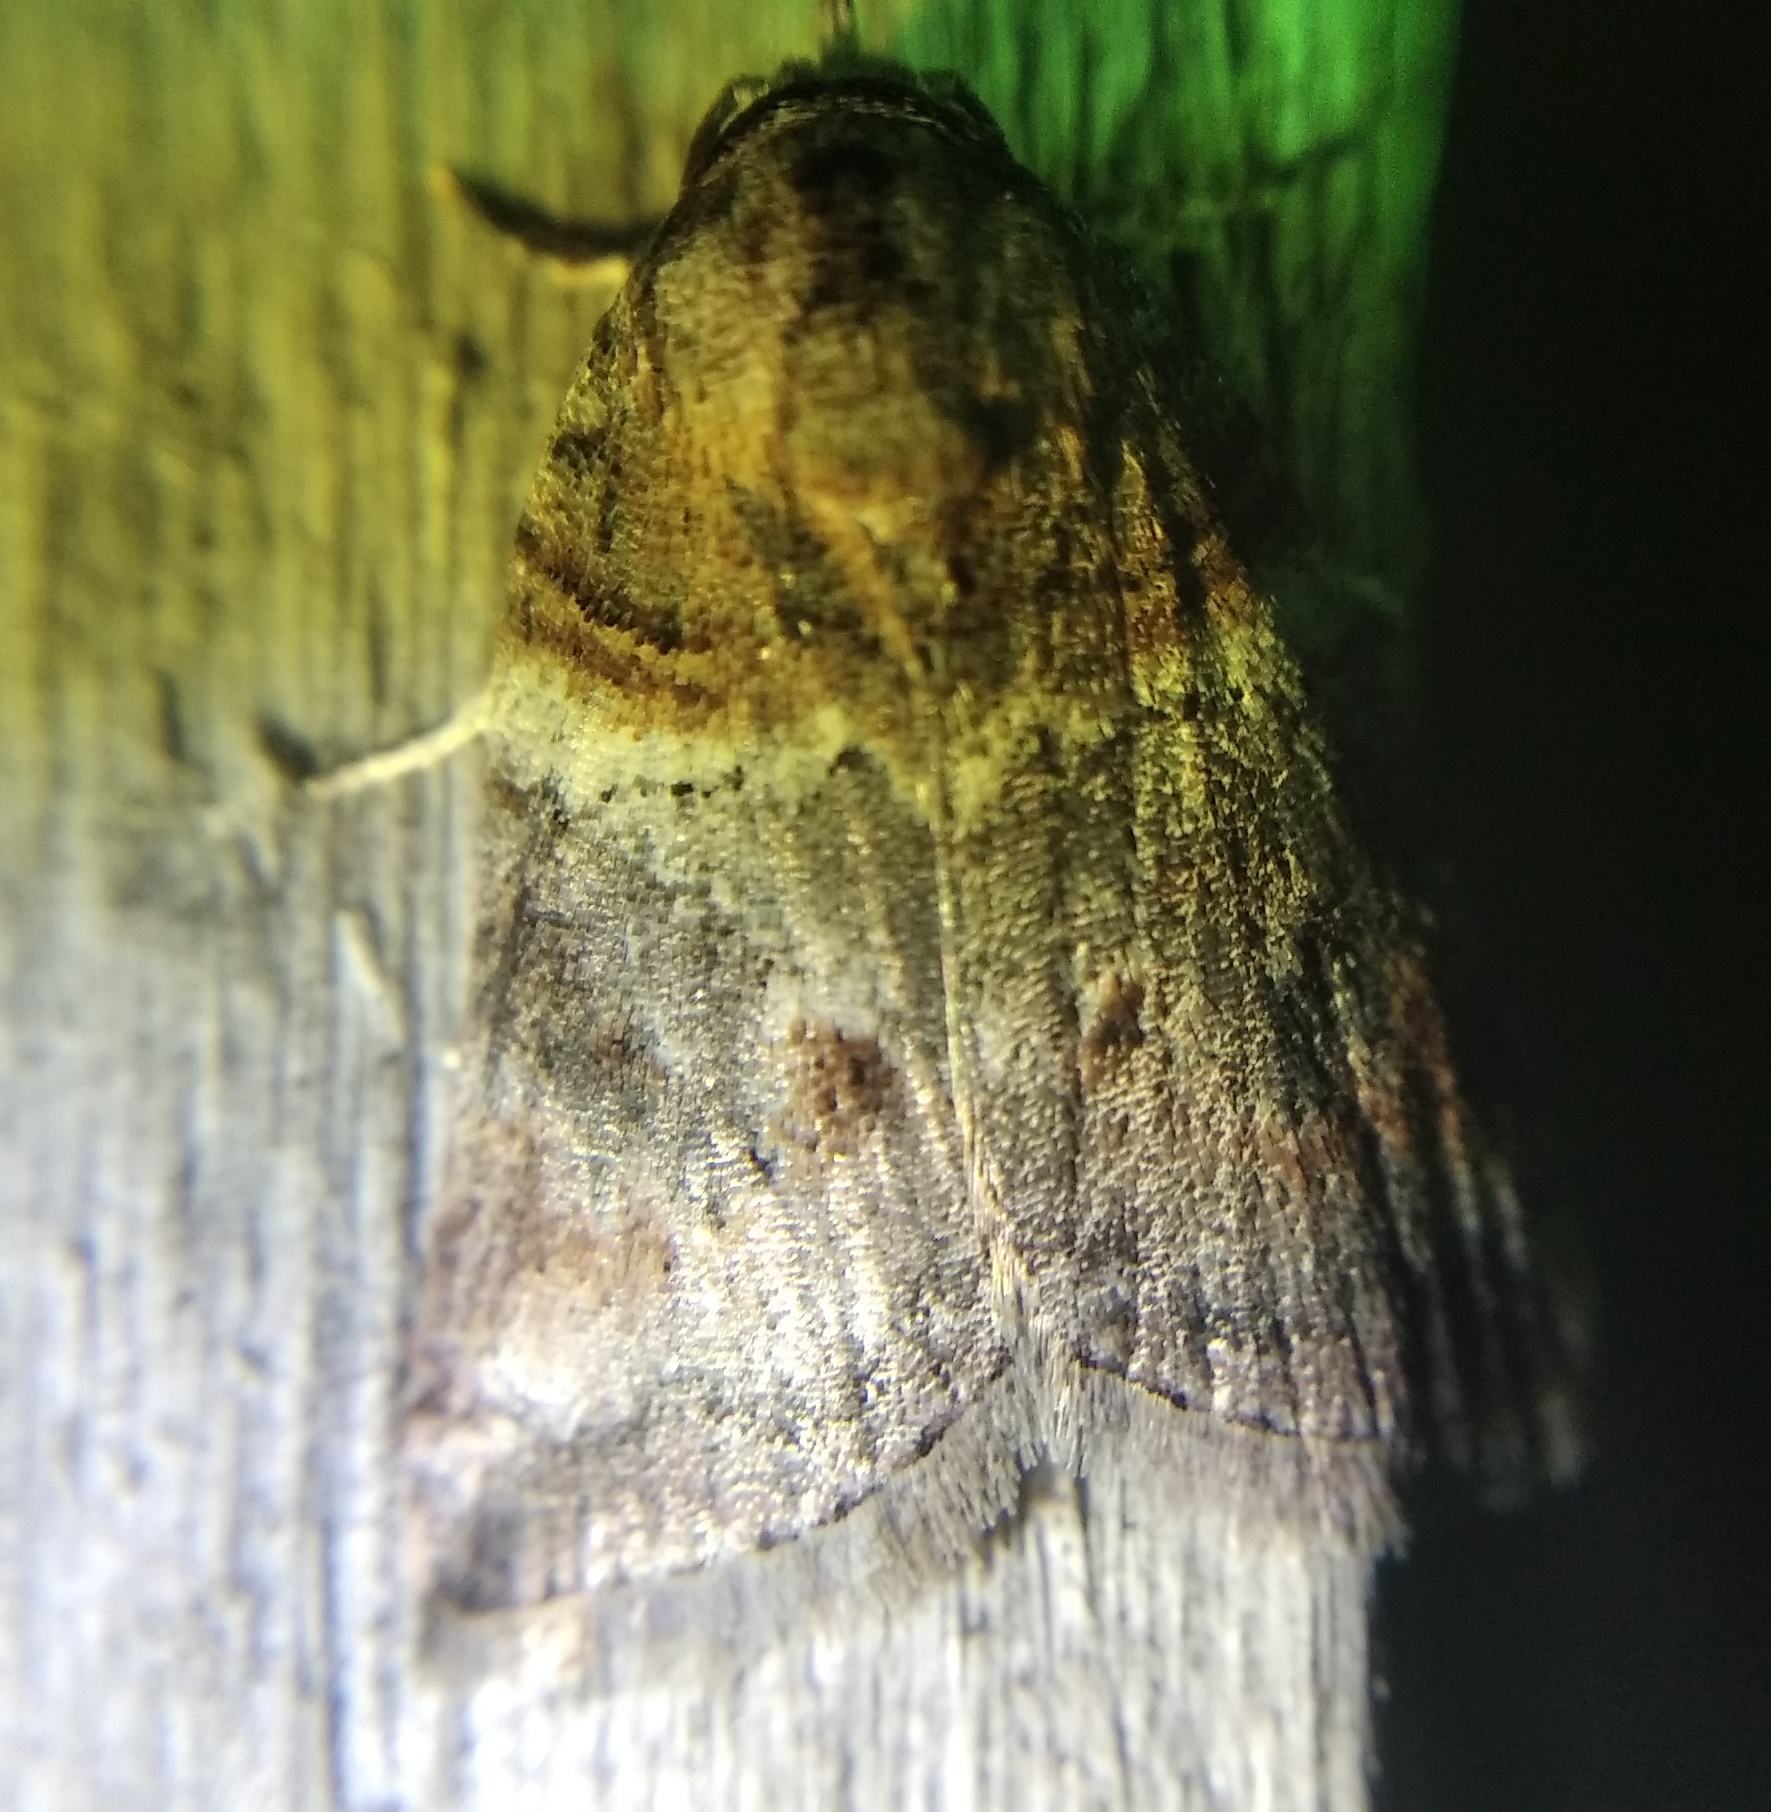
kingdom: Animalia
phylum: Arthropoda
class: Insecta
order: Lepidoptera
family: Nolidae
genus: Garella
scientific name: Garella musculana
